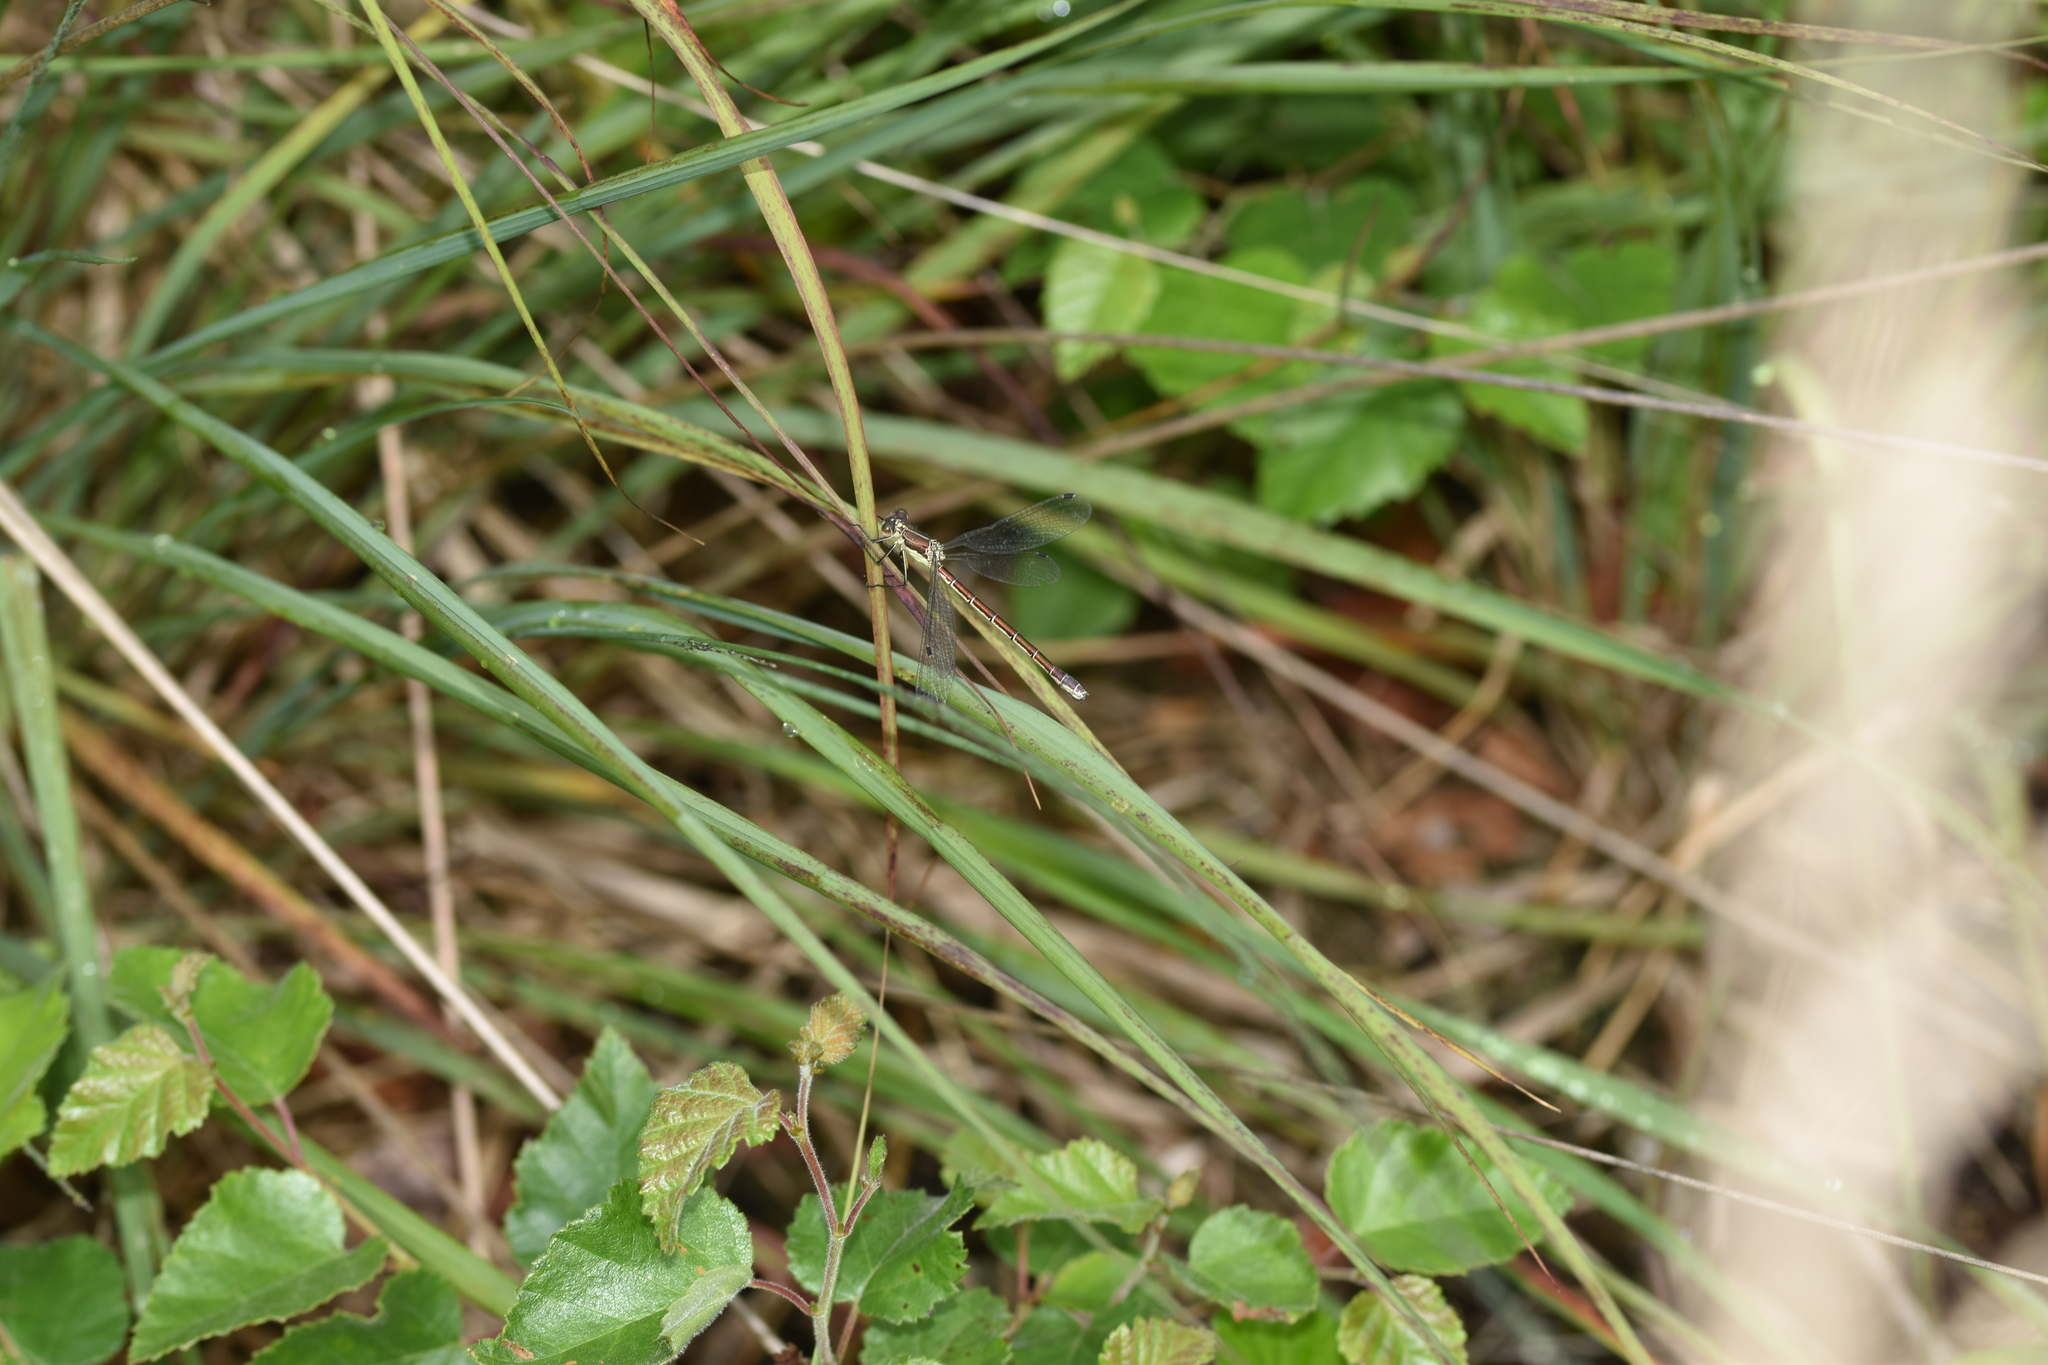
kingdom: Animalia
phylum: Arthropoda
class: Insecta
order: Odonata
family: Lestidae
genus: Lestes
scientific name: Lestes dryas
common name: Scarce emerald damselfly
